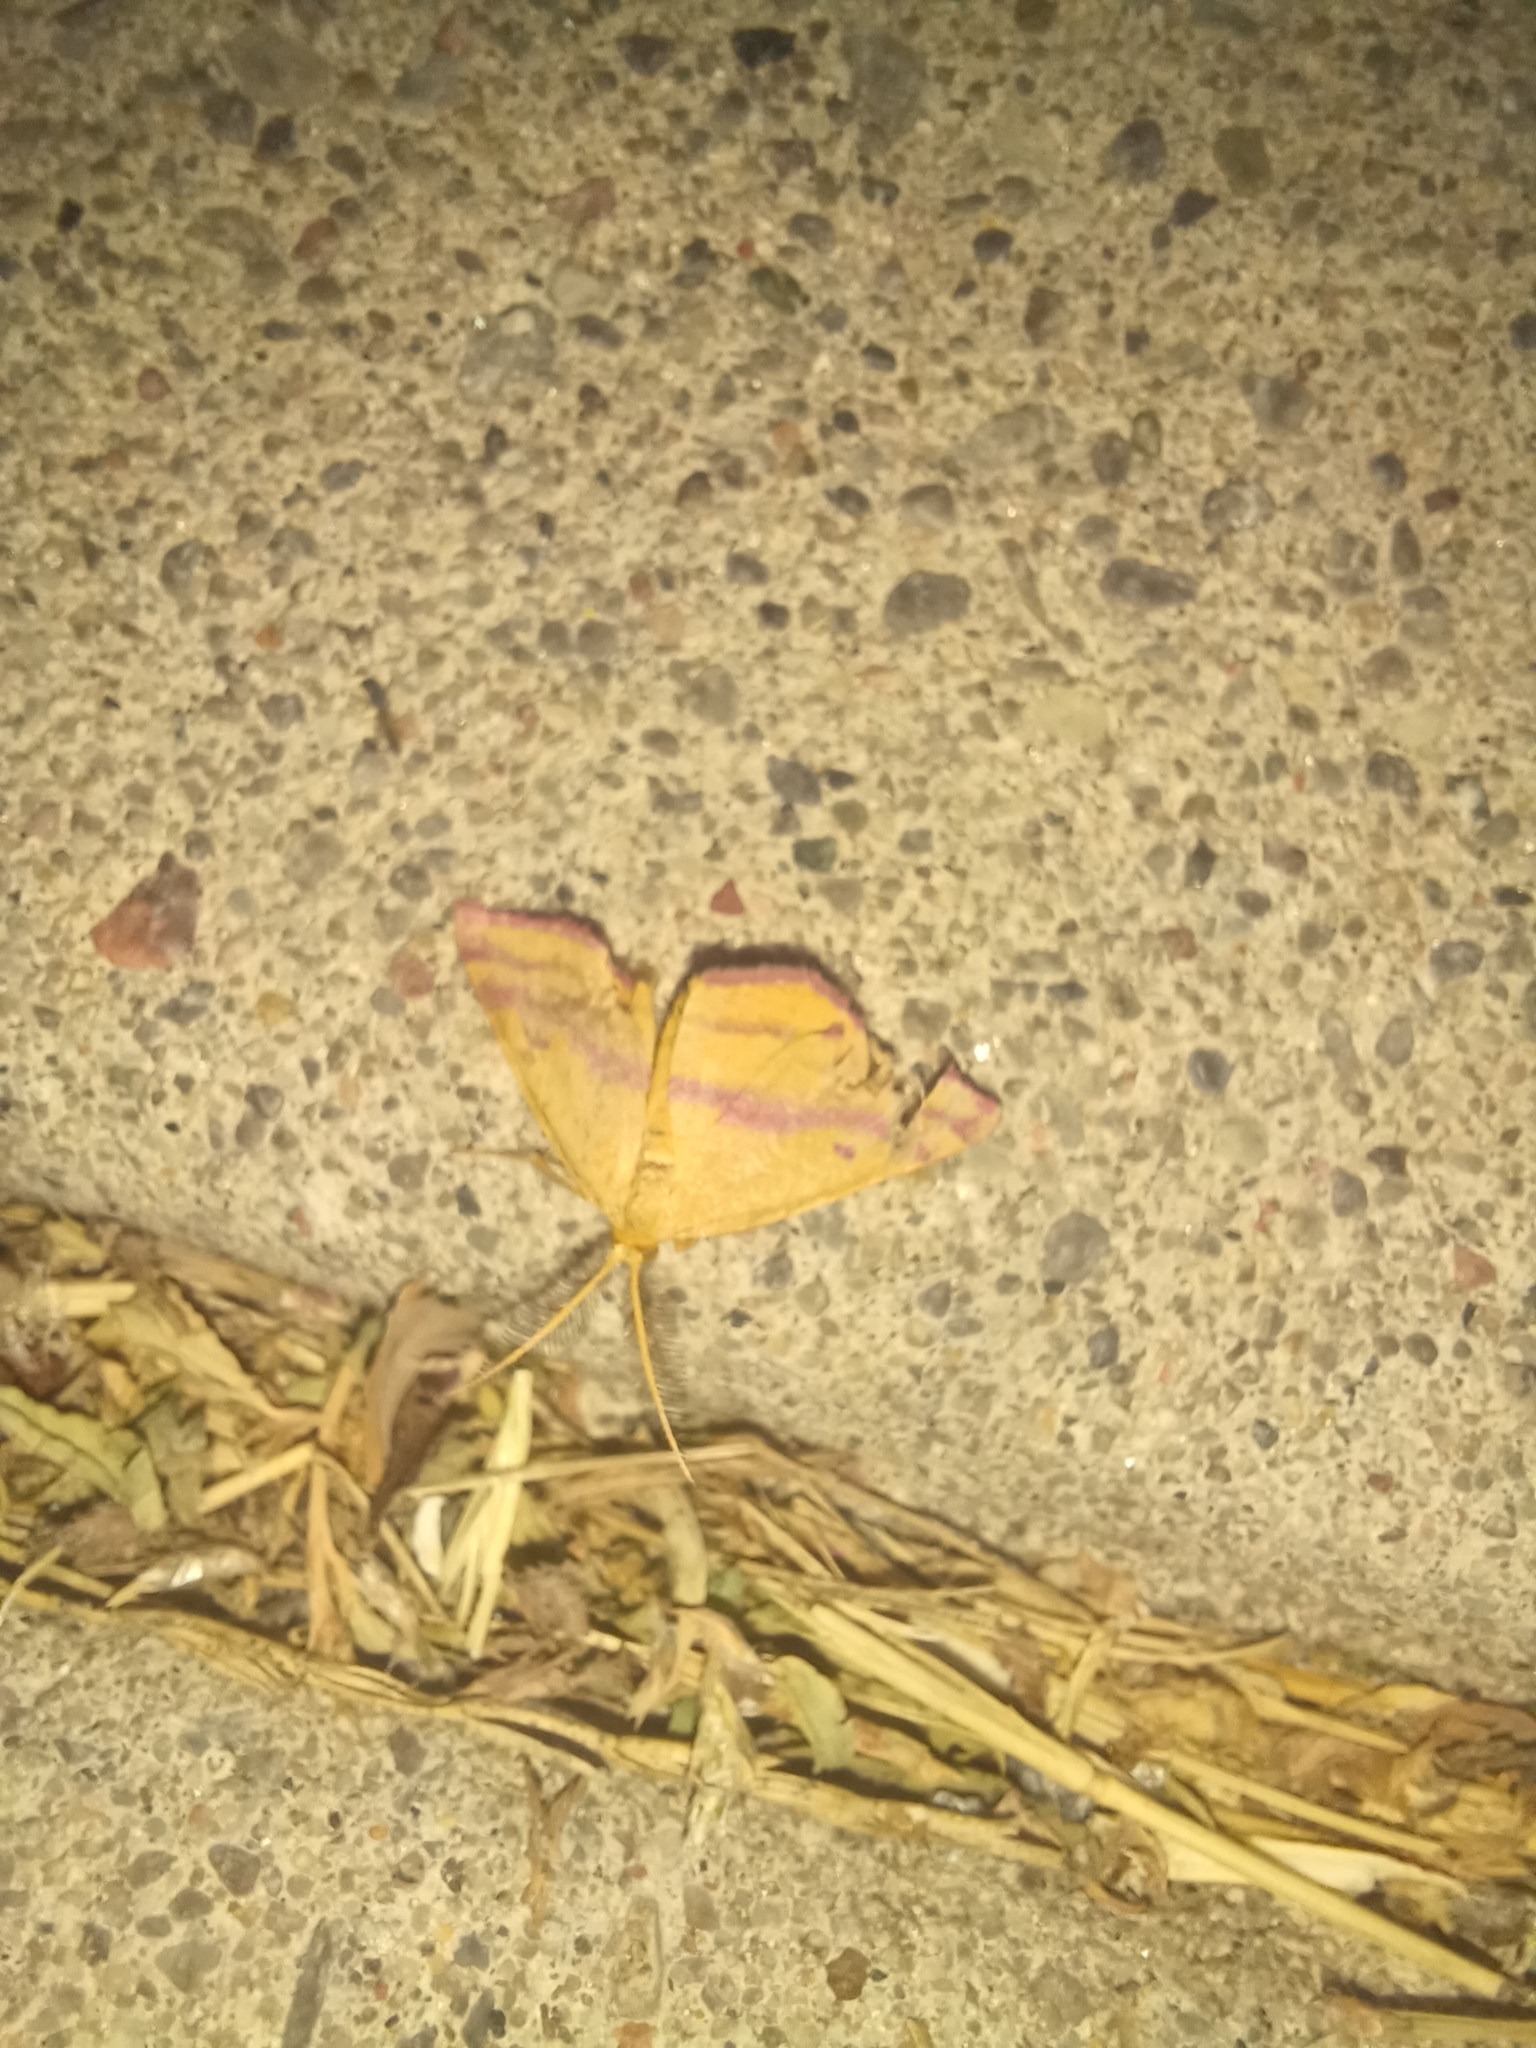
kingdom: Animalia
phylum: Arthropoda
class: Insecta
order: Lepidoptera
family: Geometridae
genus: Haematopis
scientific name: Haematopis grataria
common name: Chickweed geometer
